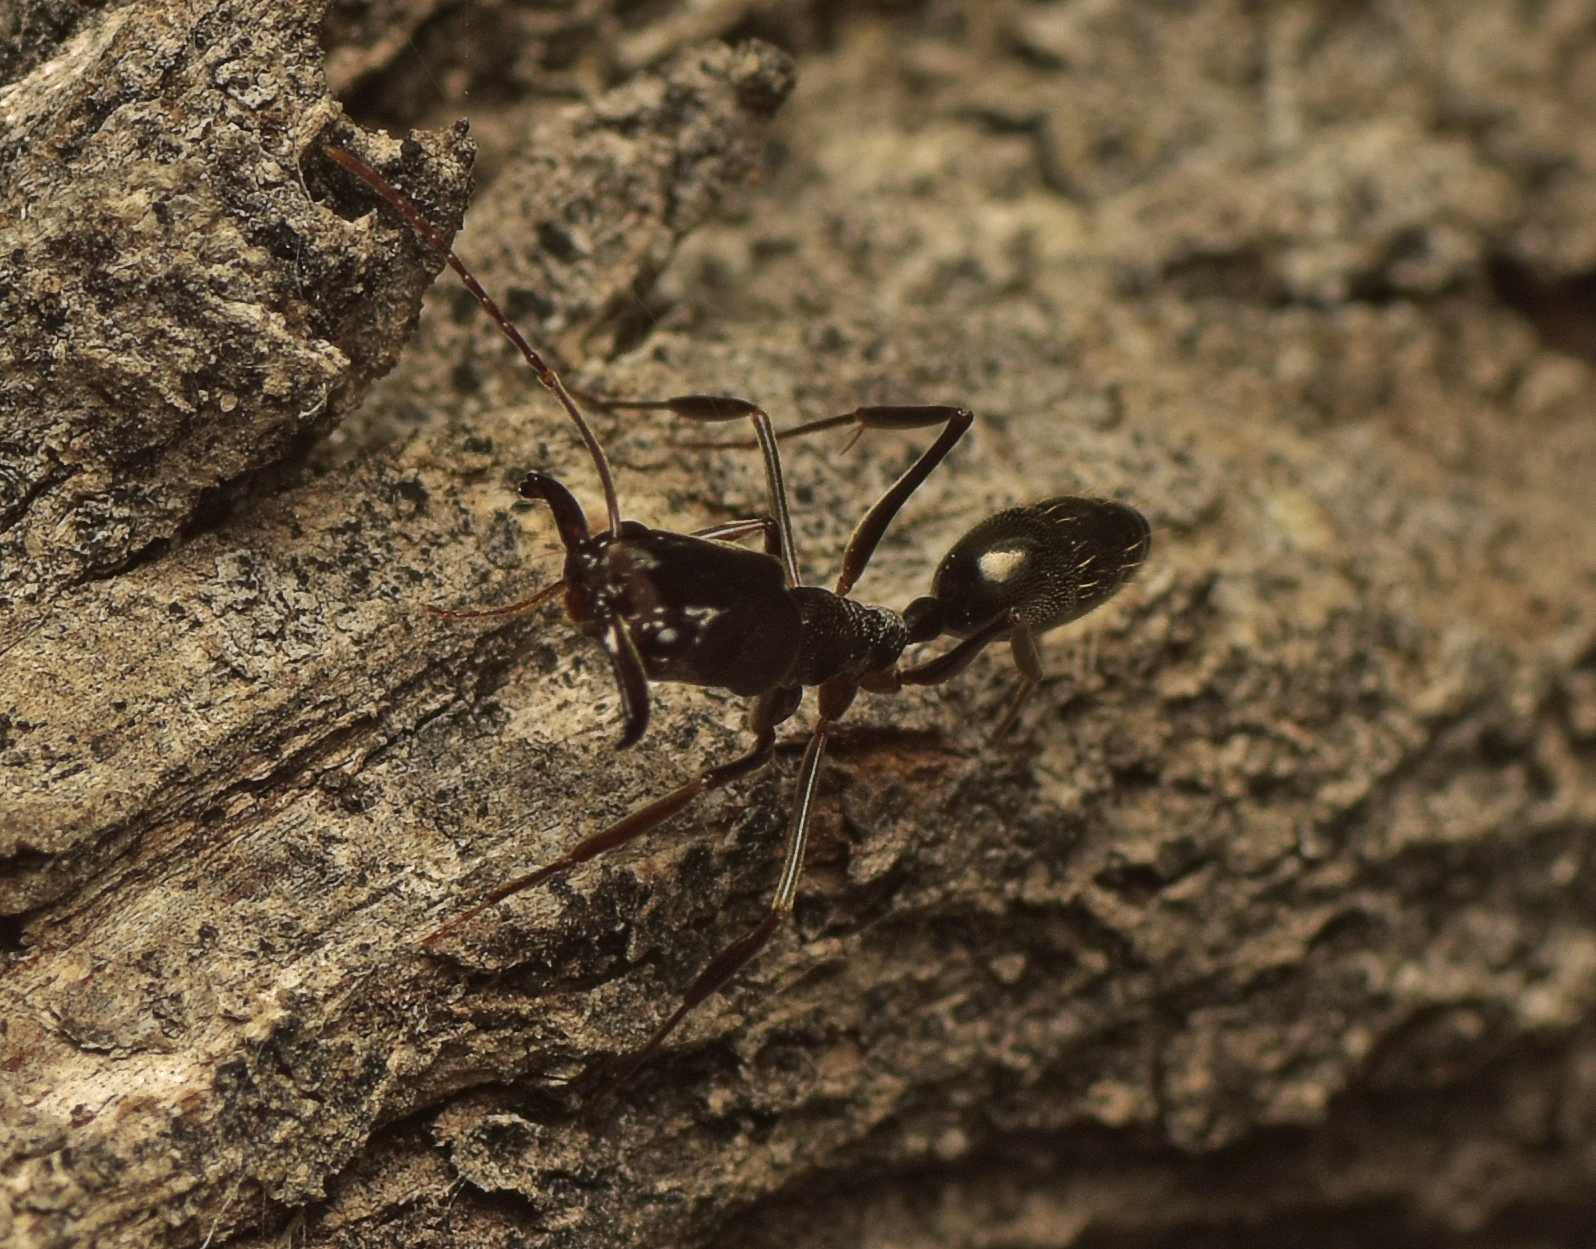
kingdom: Animalia
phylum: Arthropoda
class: Insecta
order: Hymenoptera
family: Formicidae
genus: Odontomachus
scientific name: Odontomachus troglodytes
